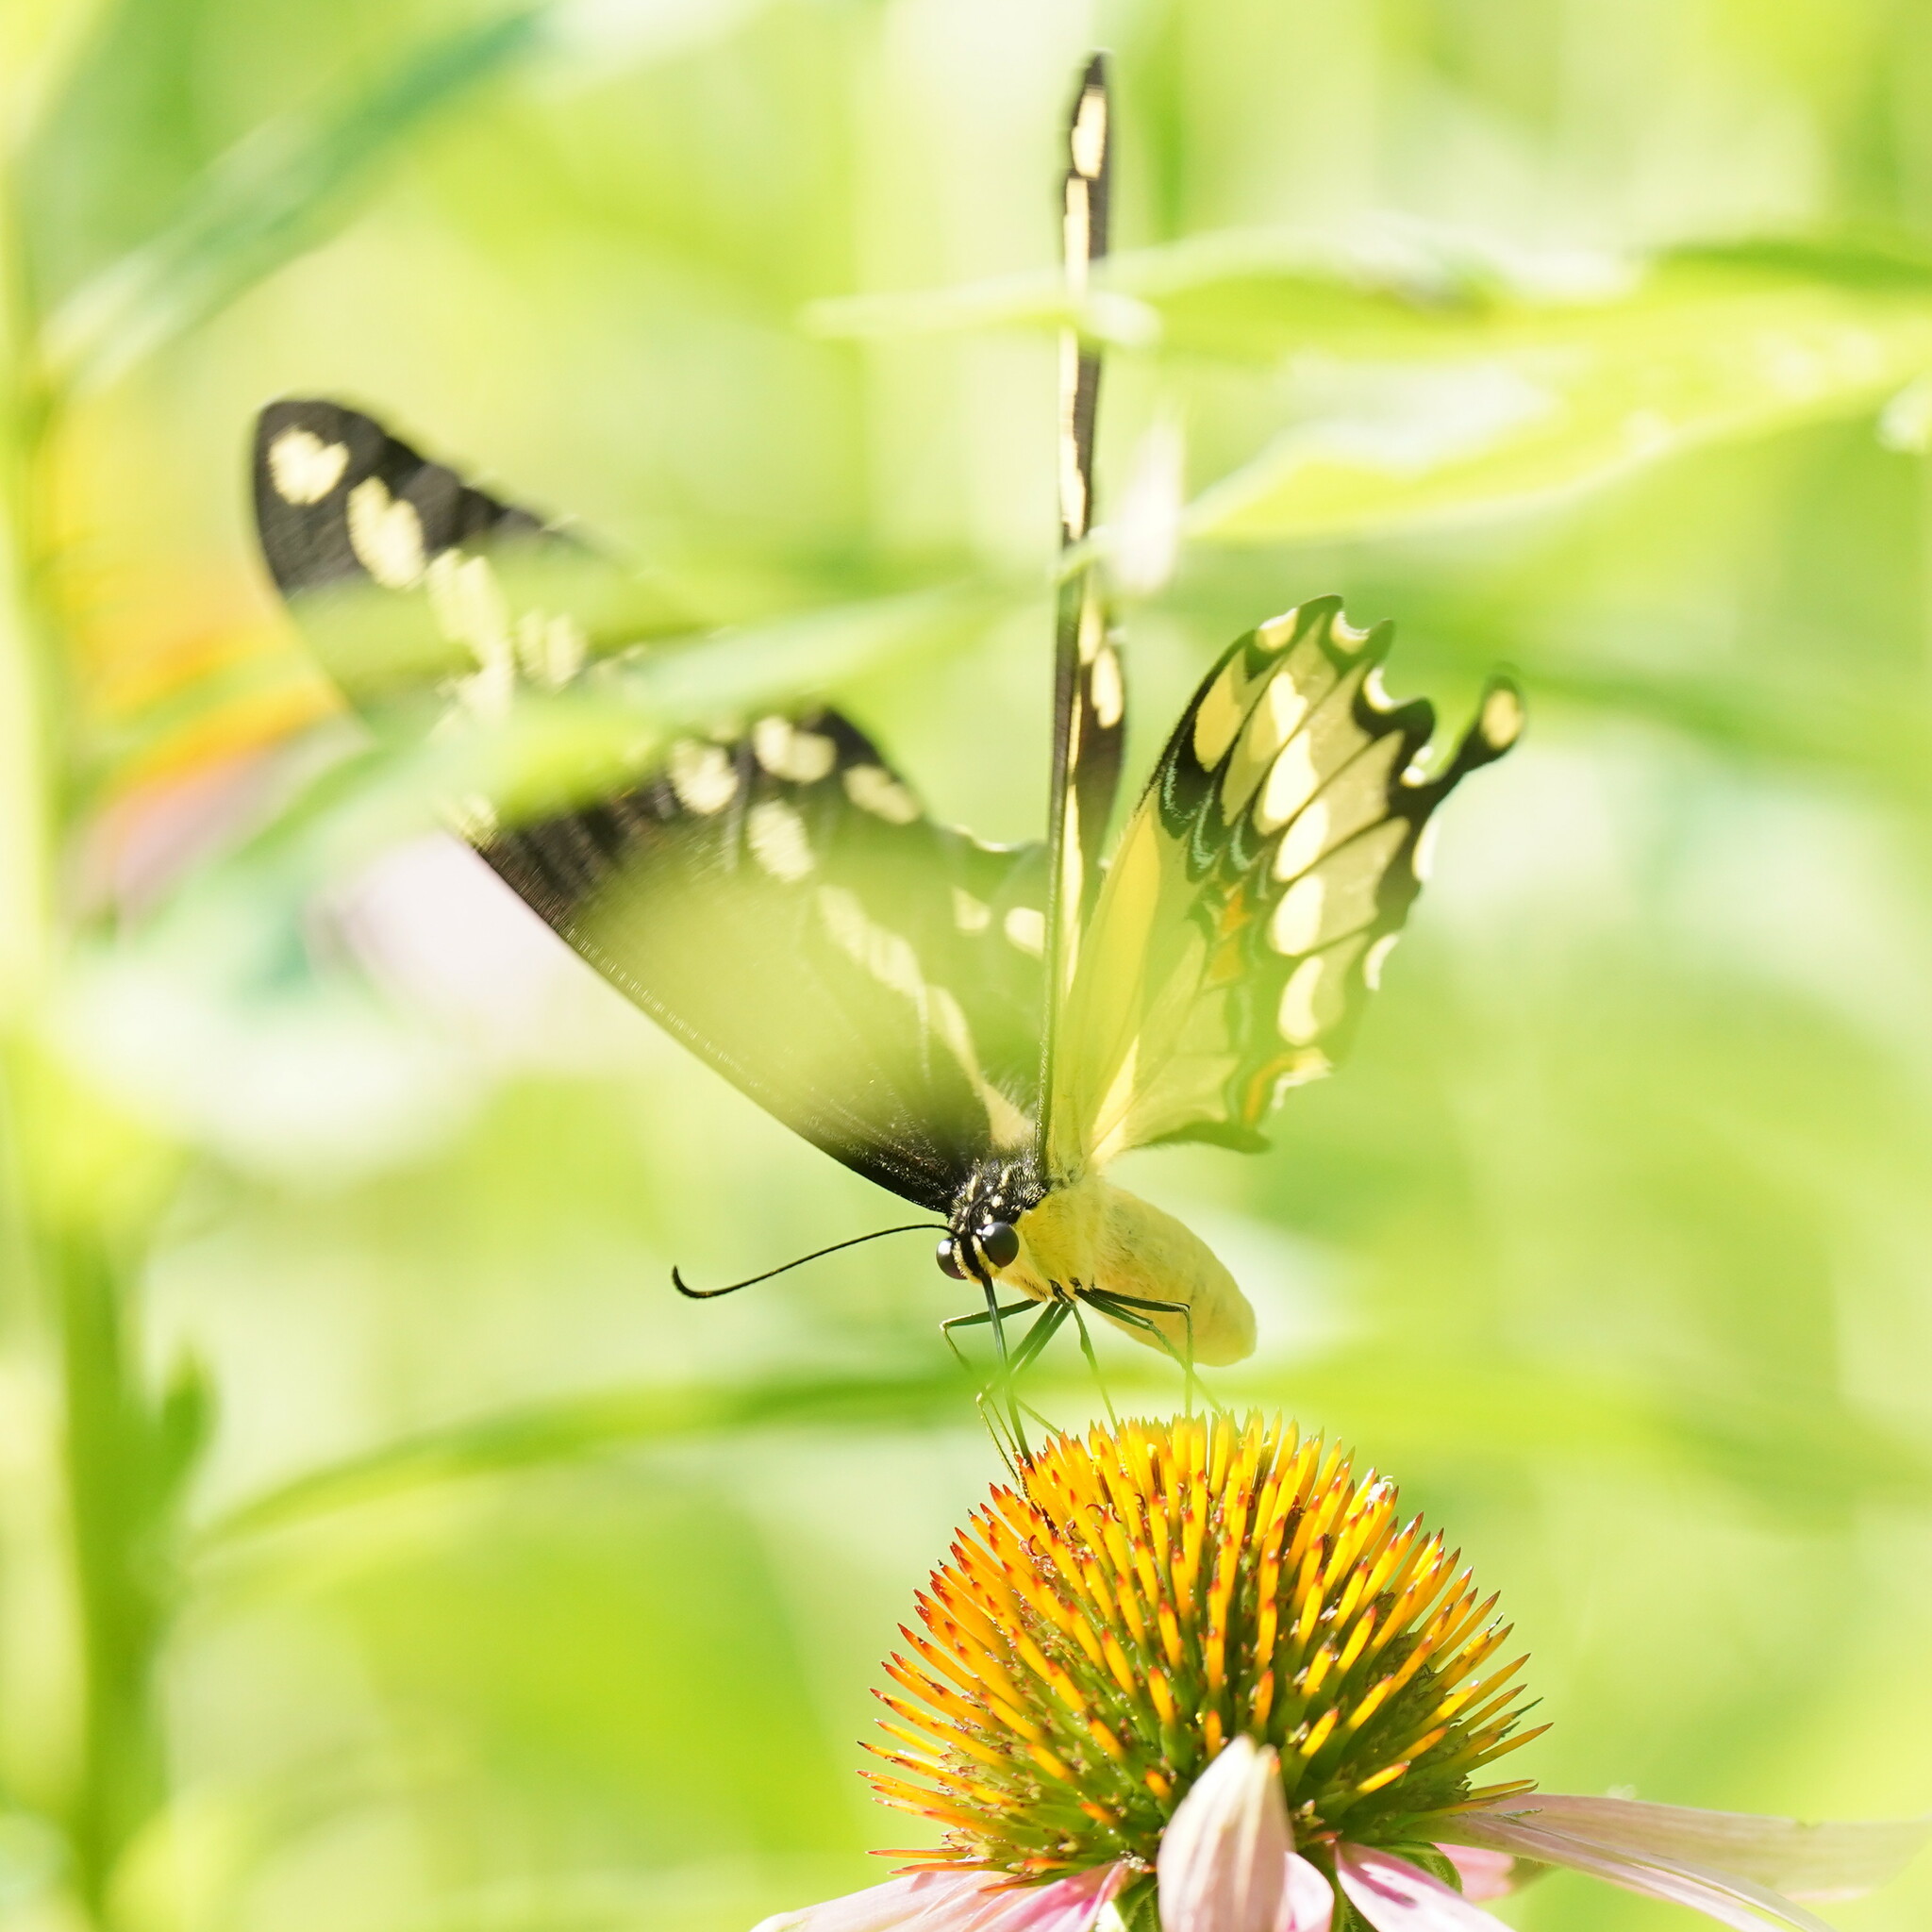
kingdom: Animalia
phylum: Arthropoda
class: Insecta
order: Lepidoptera
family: Papilionidae
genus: Papilio
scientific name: Papilio cresphontes
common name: Giant swallowtail
